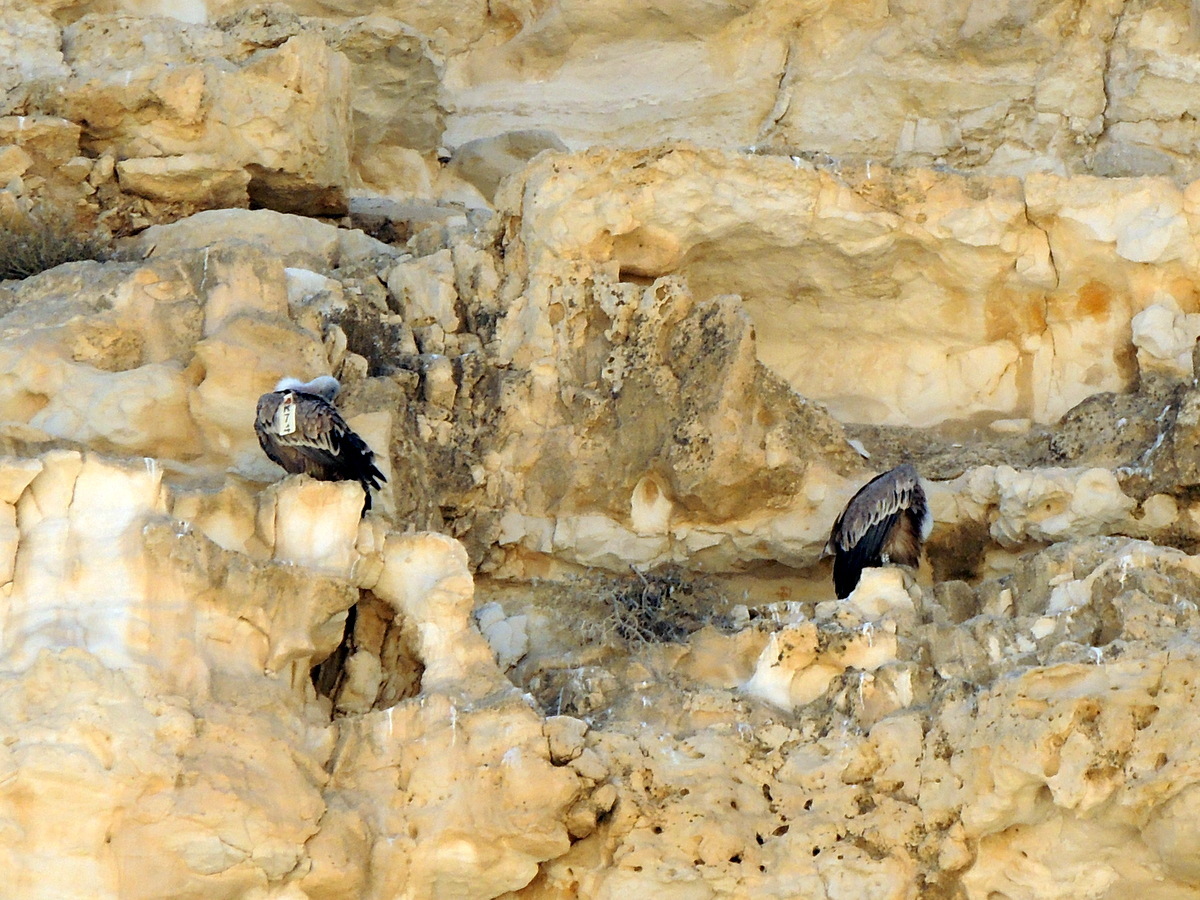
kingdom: Animalia
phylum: Chordata
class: Aves
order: Accipitriformes
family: Accipitridae
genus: Gyps
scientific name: Gyps fulvus
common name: Griffon vulture
